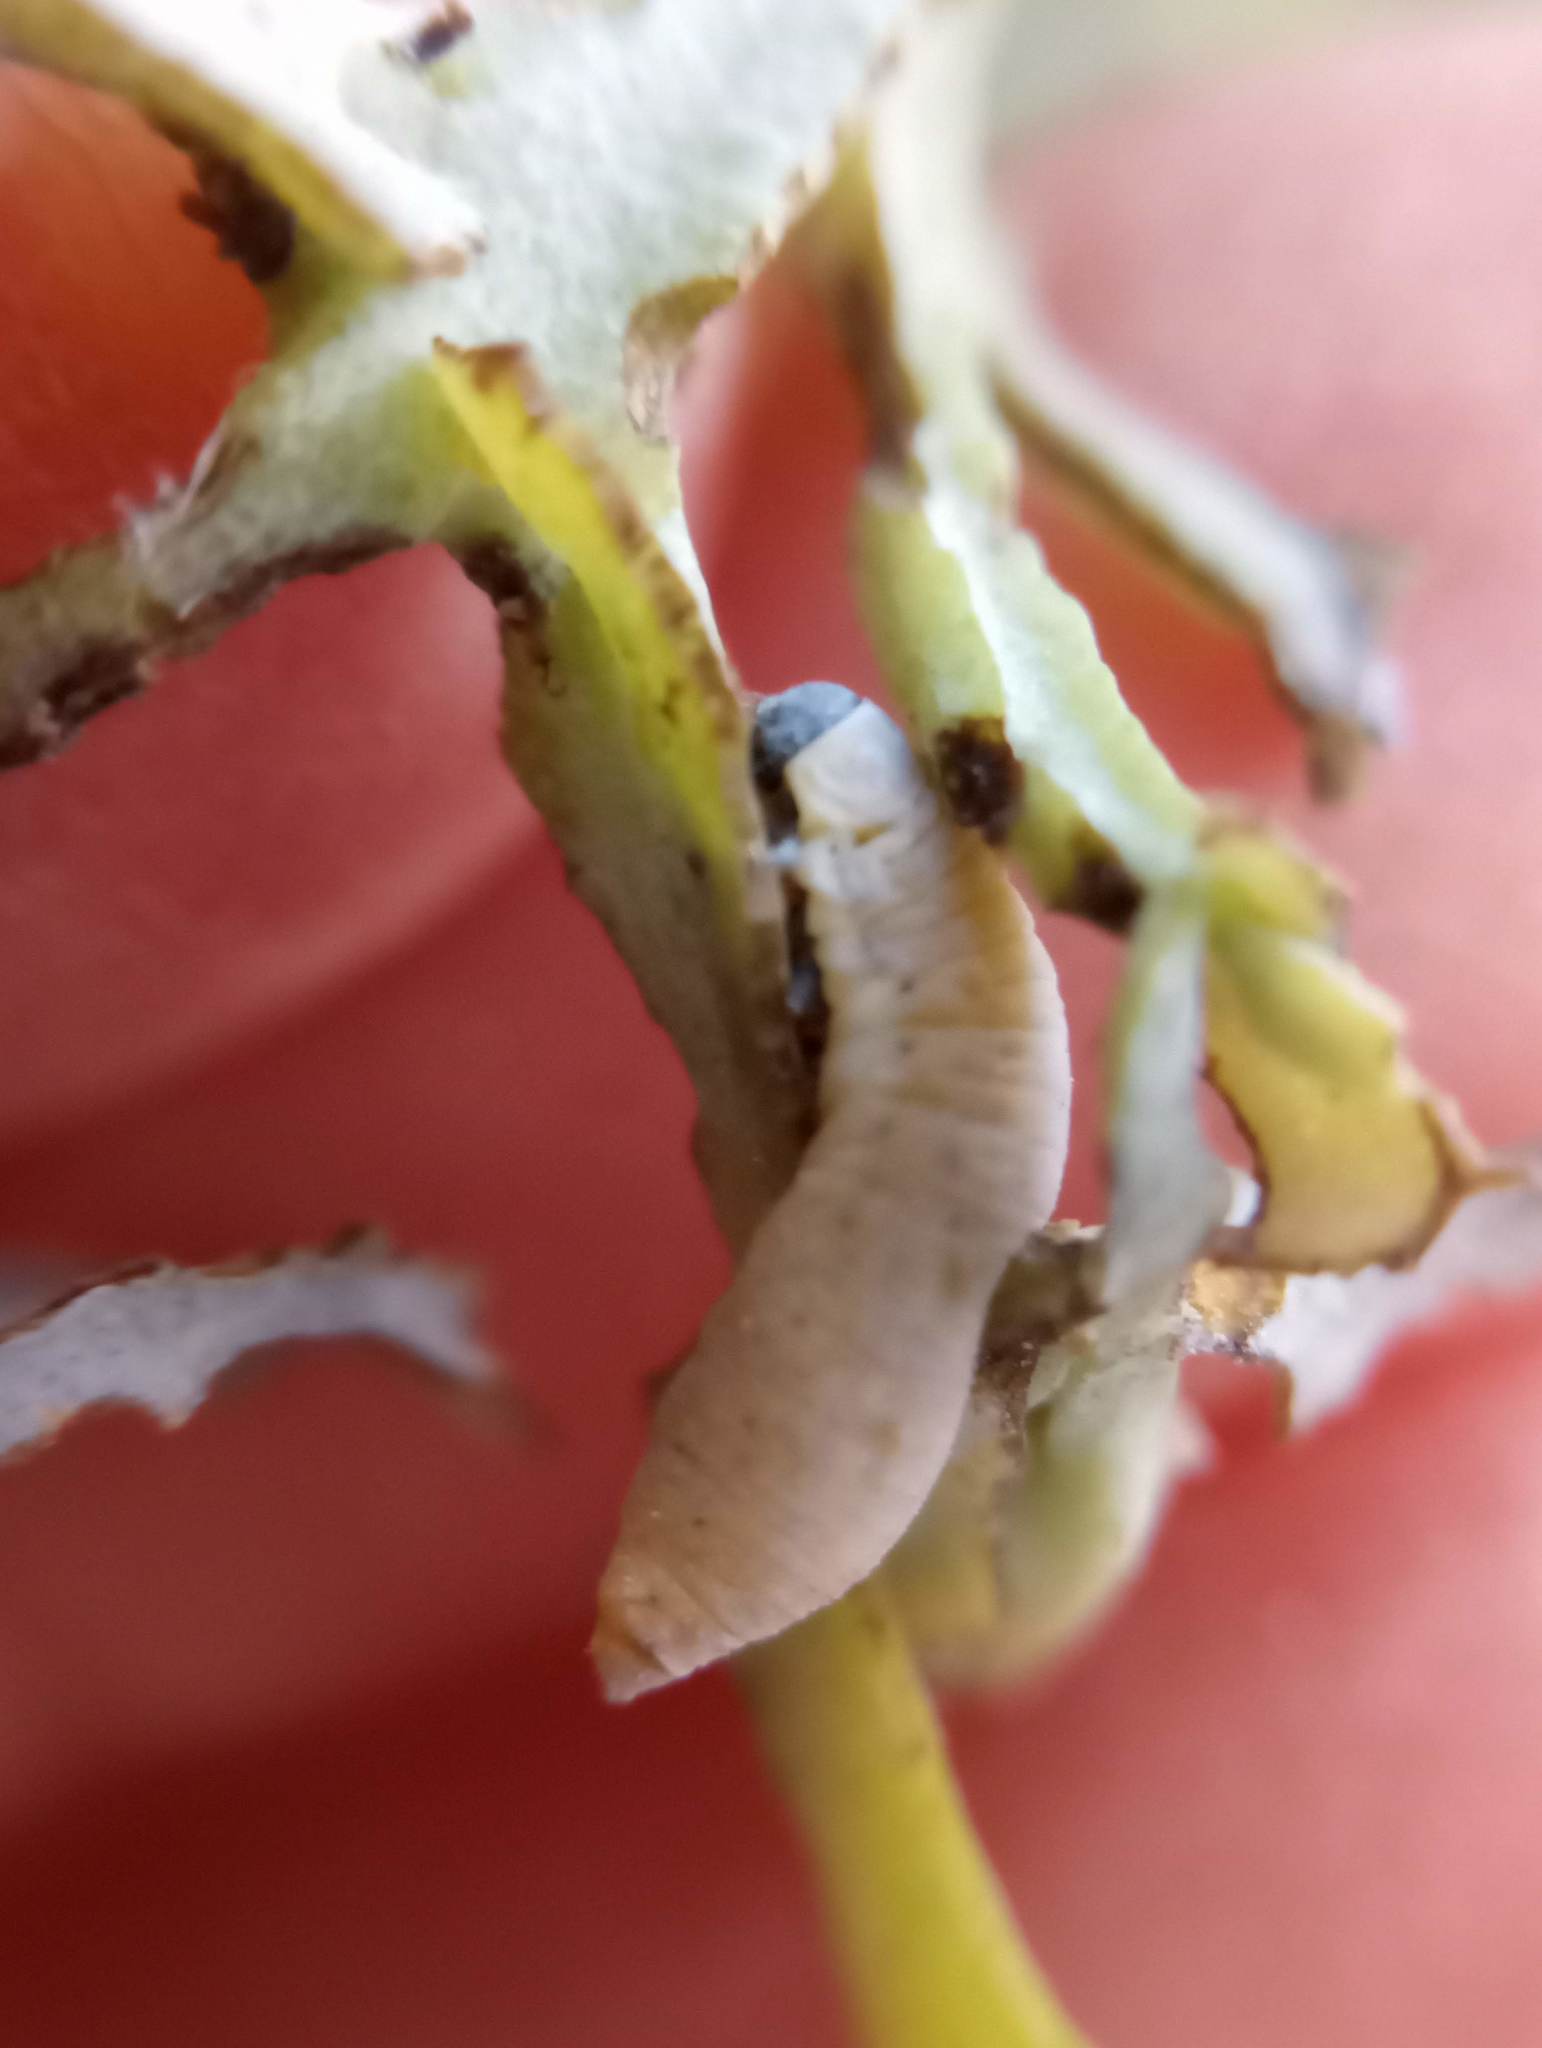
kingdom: Animalia
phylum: Arthropoda
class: Insecta
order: Coleoptera
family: Chrysomelidae
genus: Paropsisterna
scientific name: Paropsisterna m-fuscum
